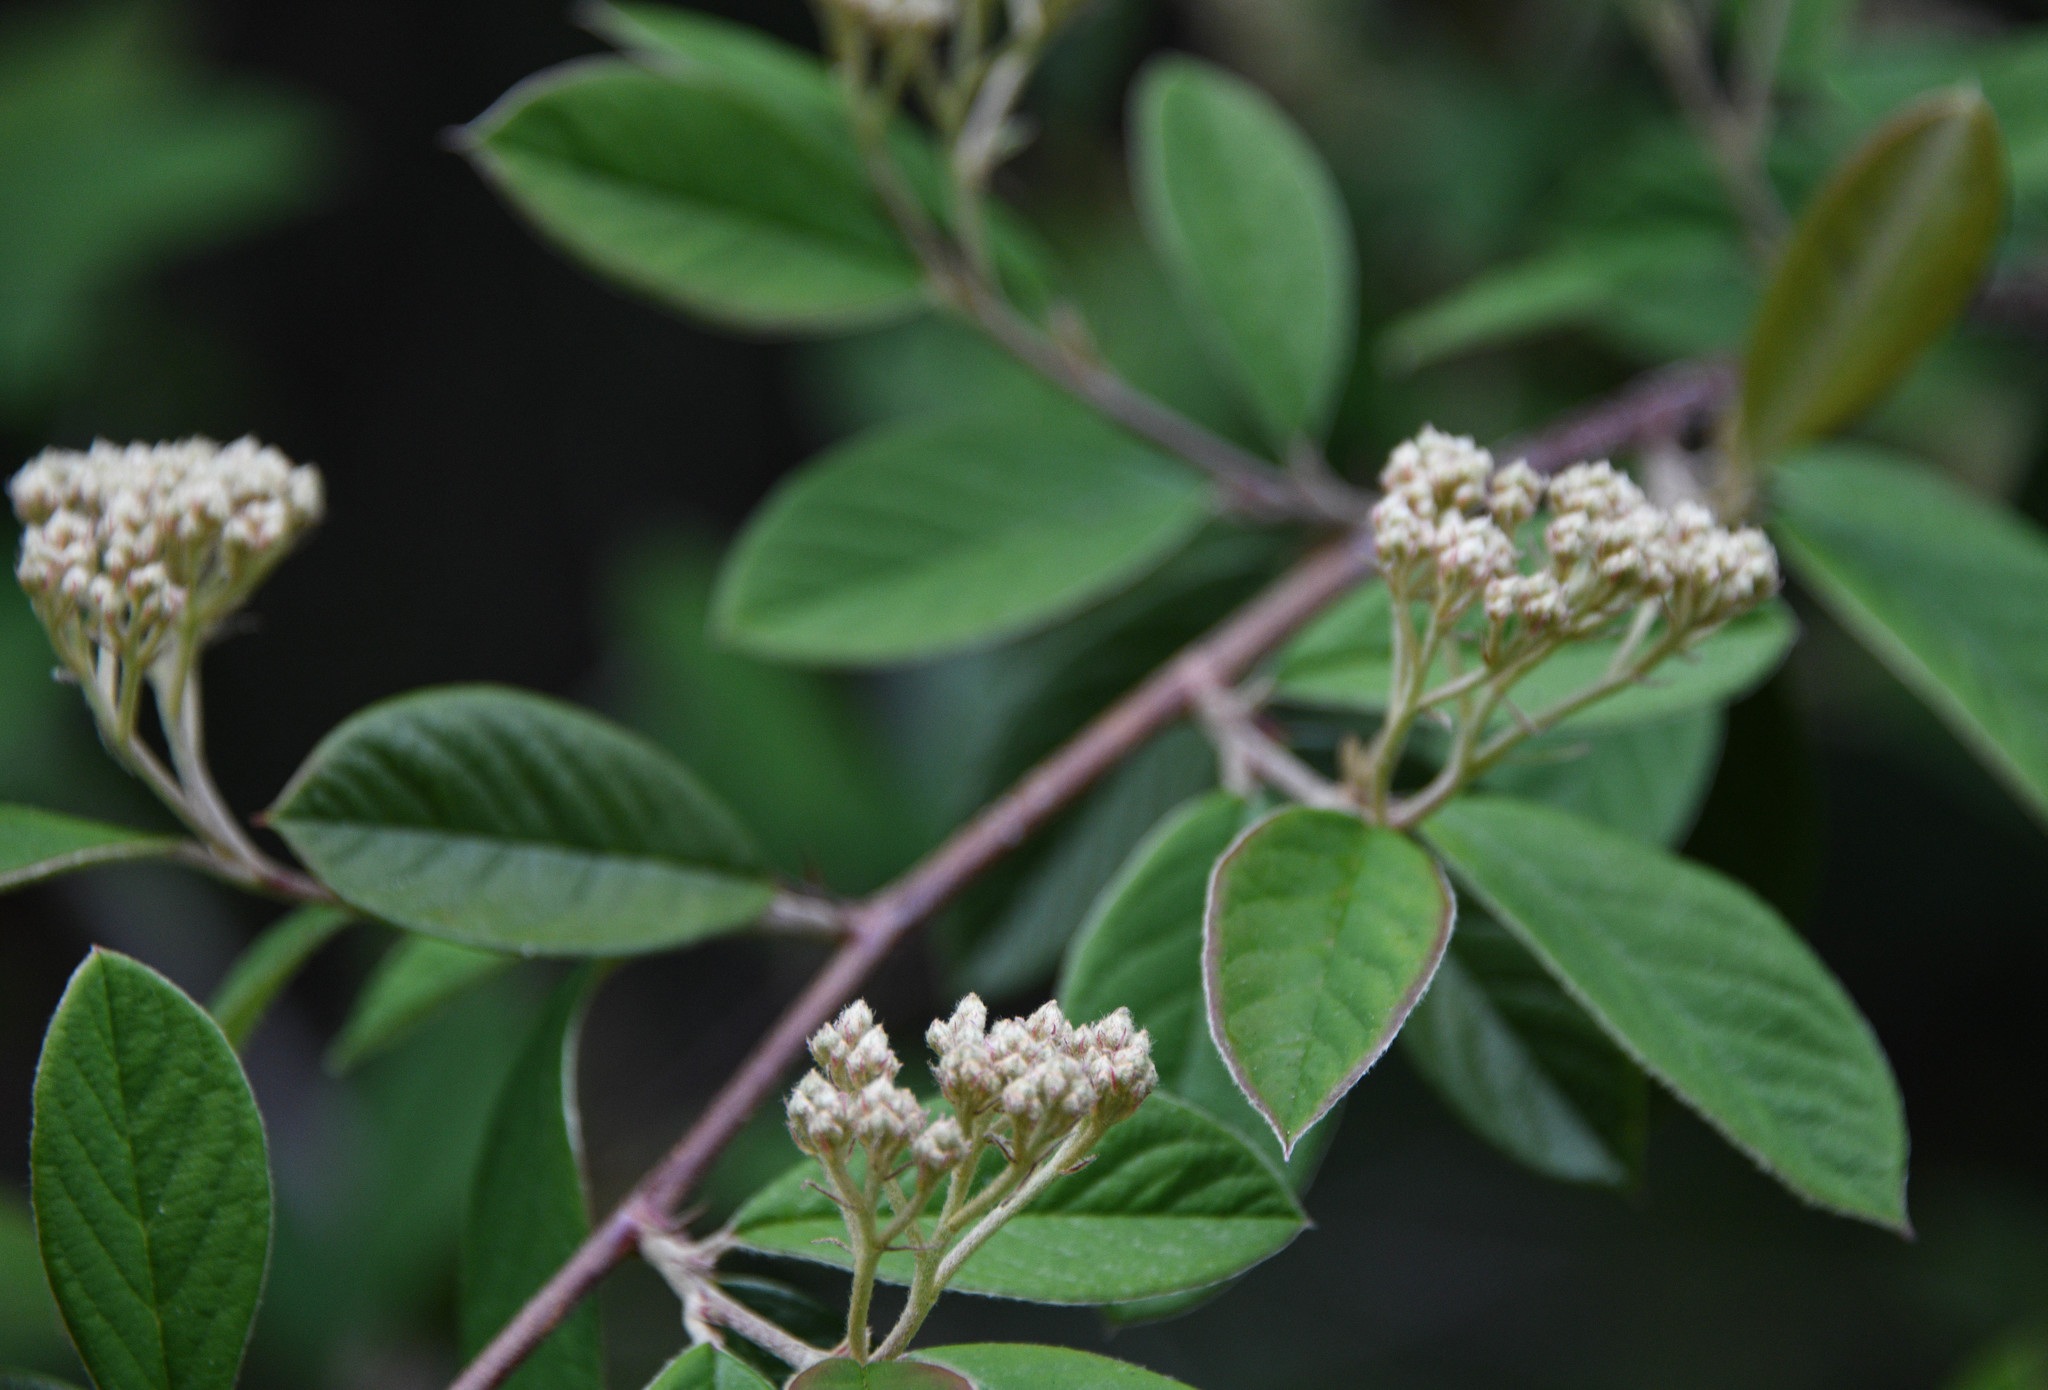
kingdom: Plantae
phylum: Tracheophyta
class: Magnoliopsida
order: Rosales
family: Rosaceae
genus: Cotoneaster
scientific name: Cotoneaster pannosus
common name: Silverleaf cotoneaster
